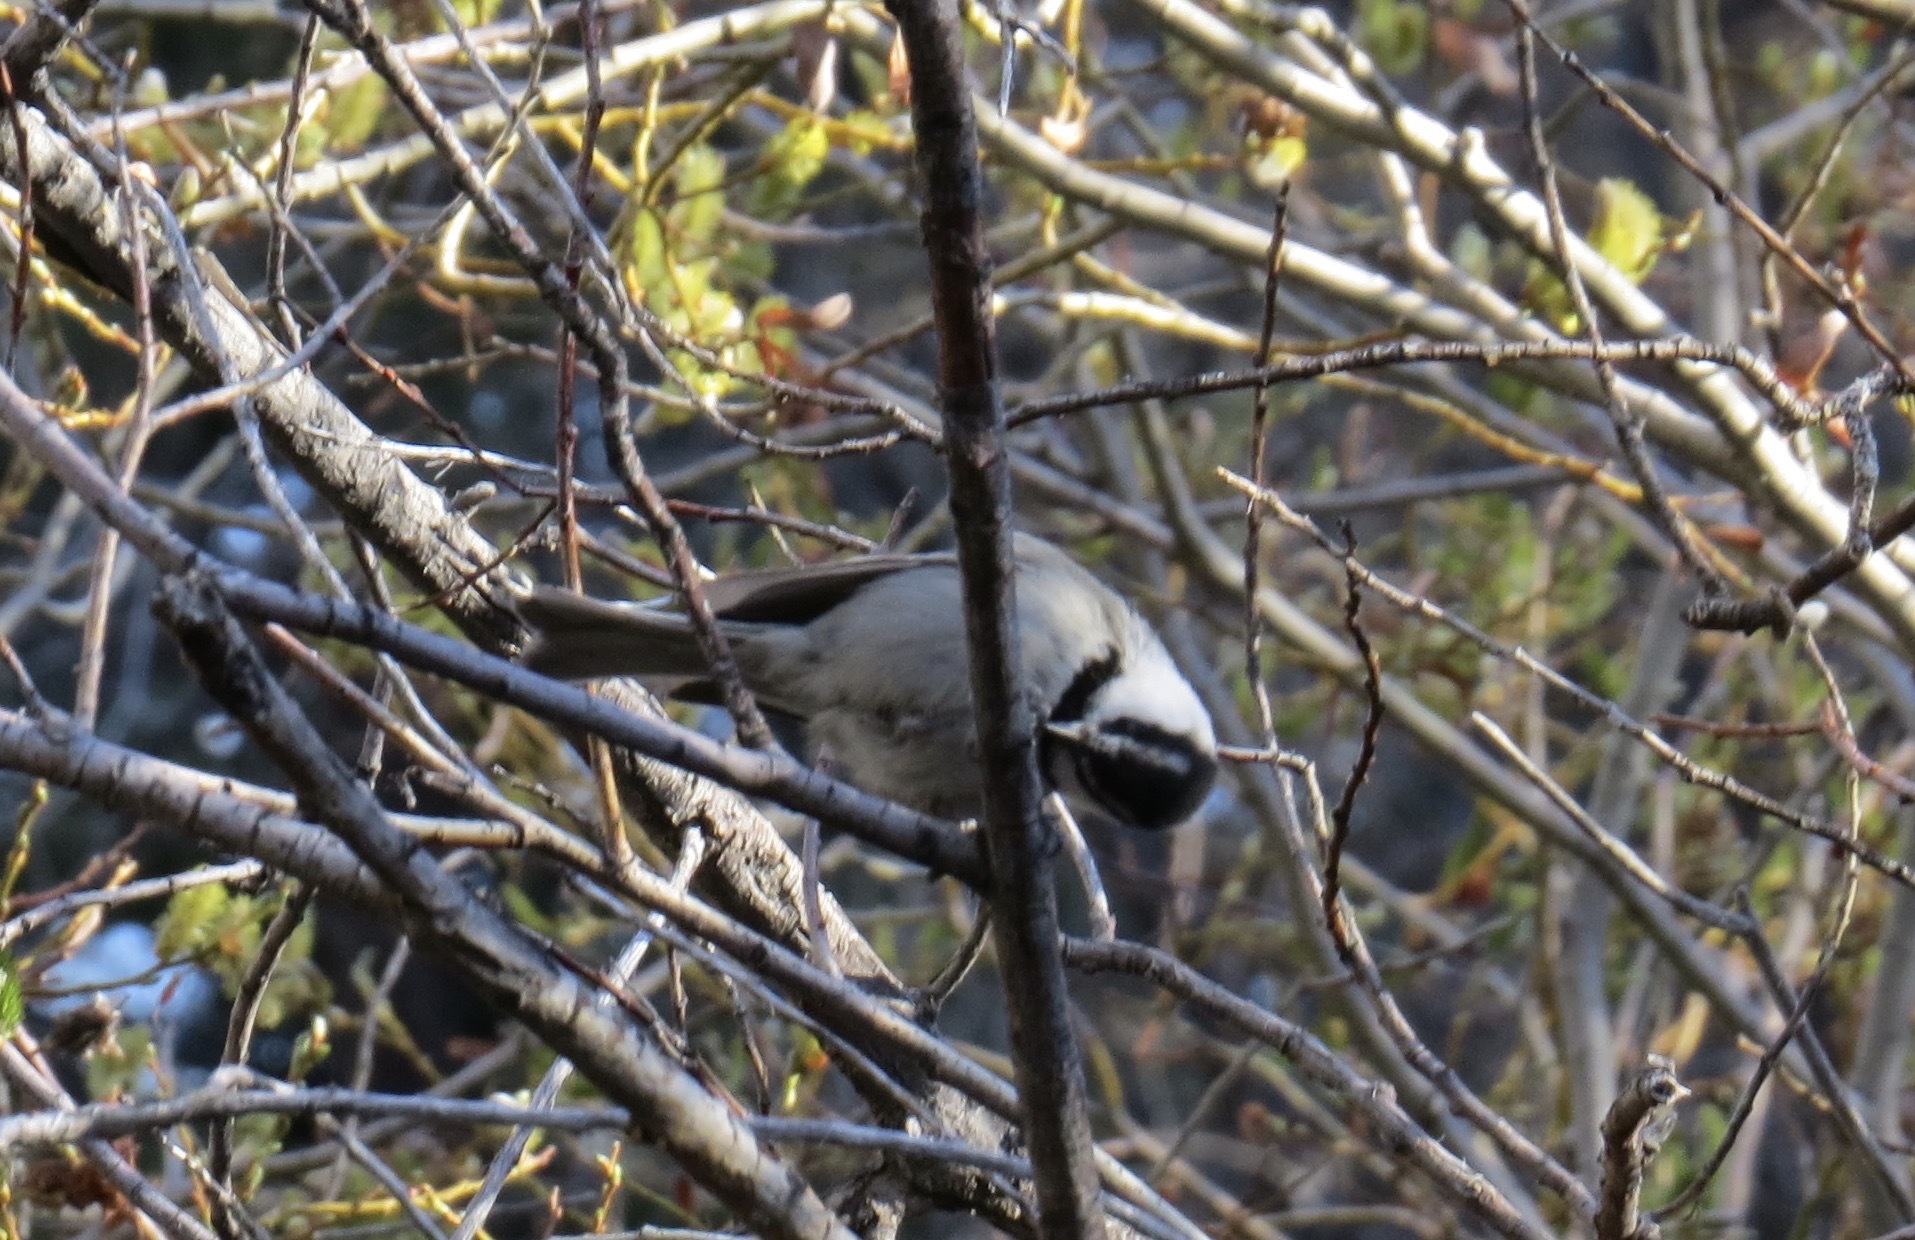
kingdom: Animalia
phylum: Chordata
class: Aves
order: Passeriformes
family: Paridae
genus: Poecile
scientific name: Poecile gambeli
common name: Mountain chickadee
